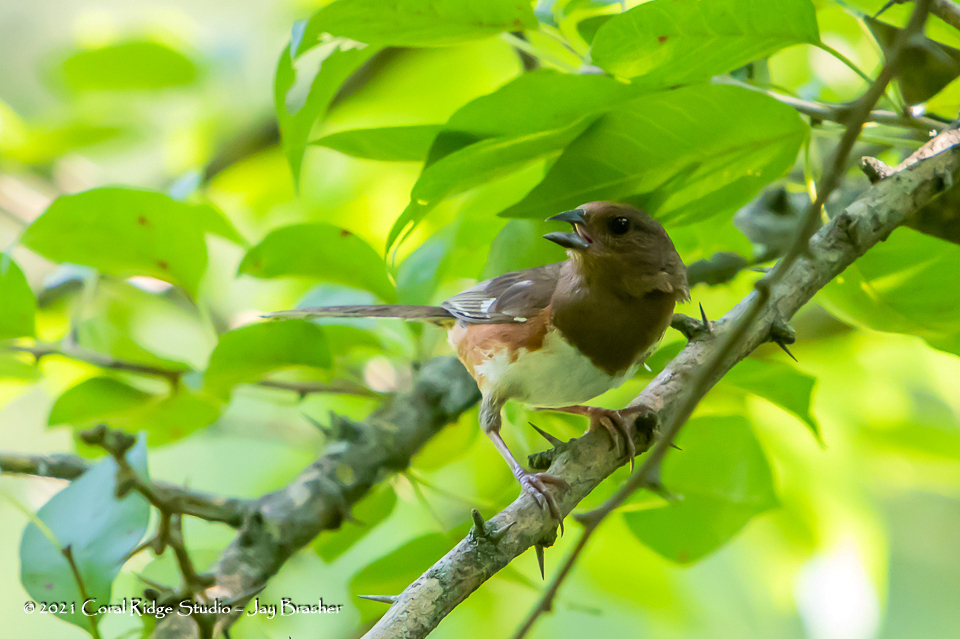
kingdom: Animalia
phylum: Chordata
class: Aves
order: Passeriformes
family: Passerellidae
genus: Pipilo
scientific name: Pipilo erythrophthalmus
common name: Eastern towhee
